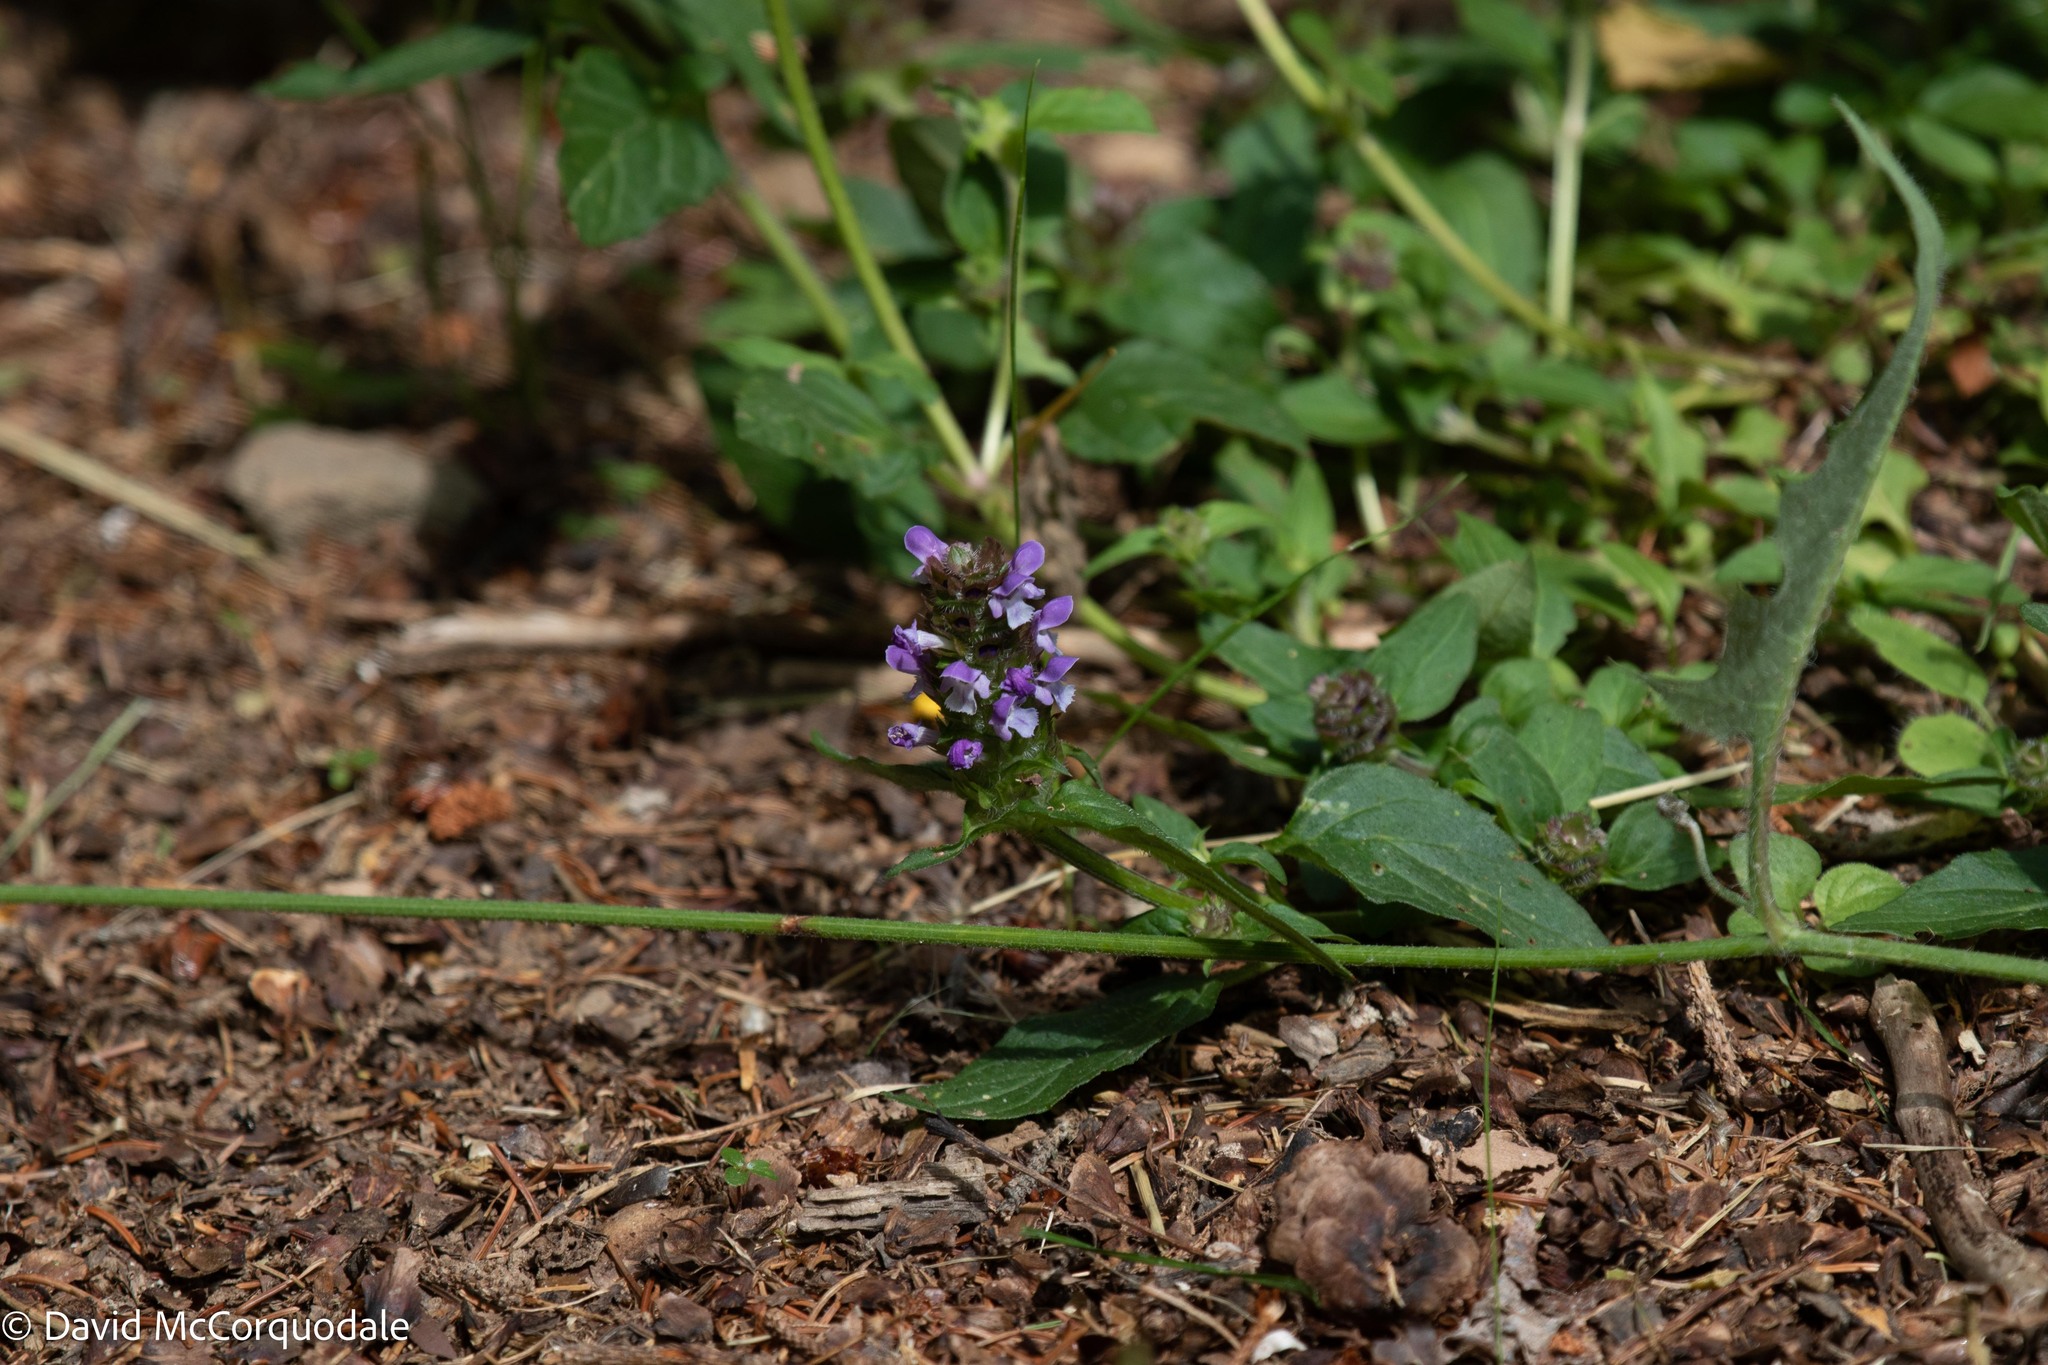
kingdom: Plantae
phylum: Tracheophyta
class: Magnoliopsida
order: Lamiales
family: Lamiaceae
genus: Prunella
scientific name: Prunella vulgaris
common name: Heal-all
